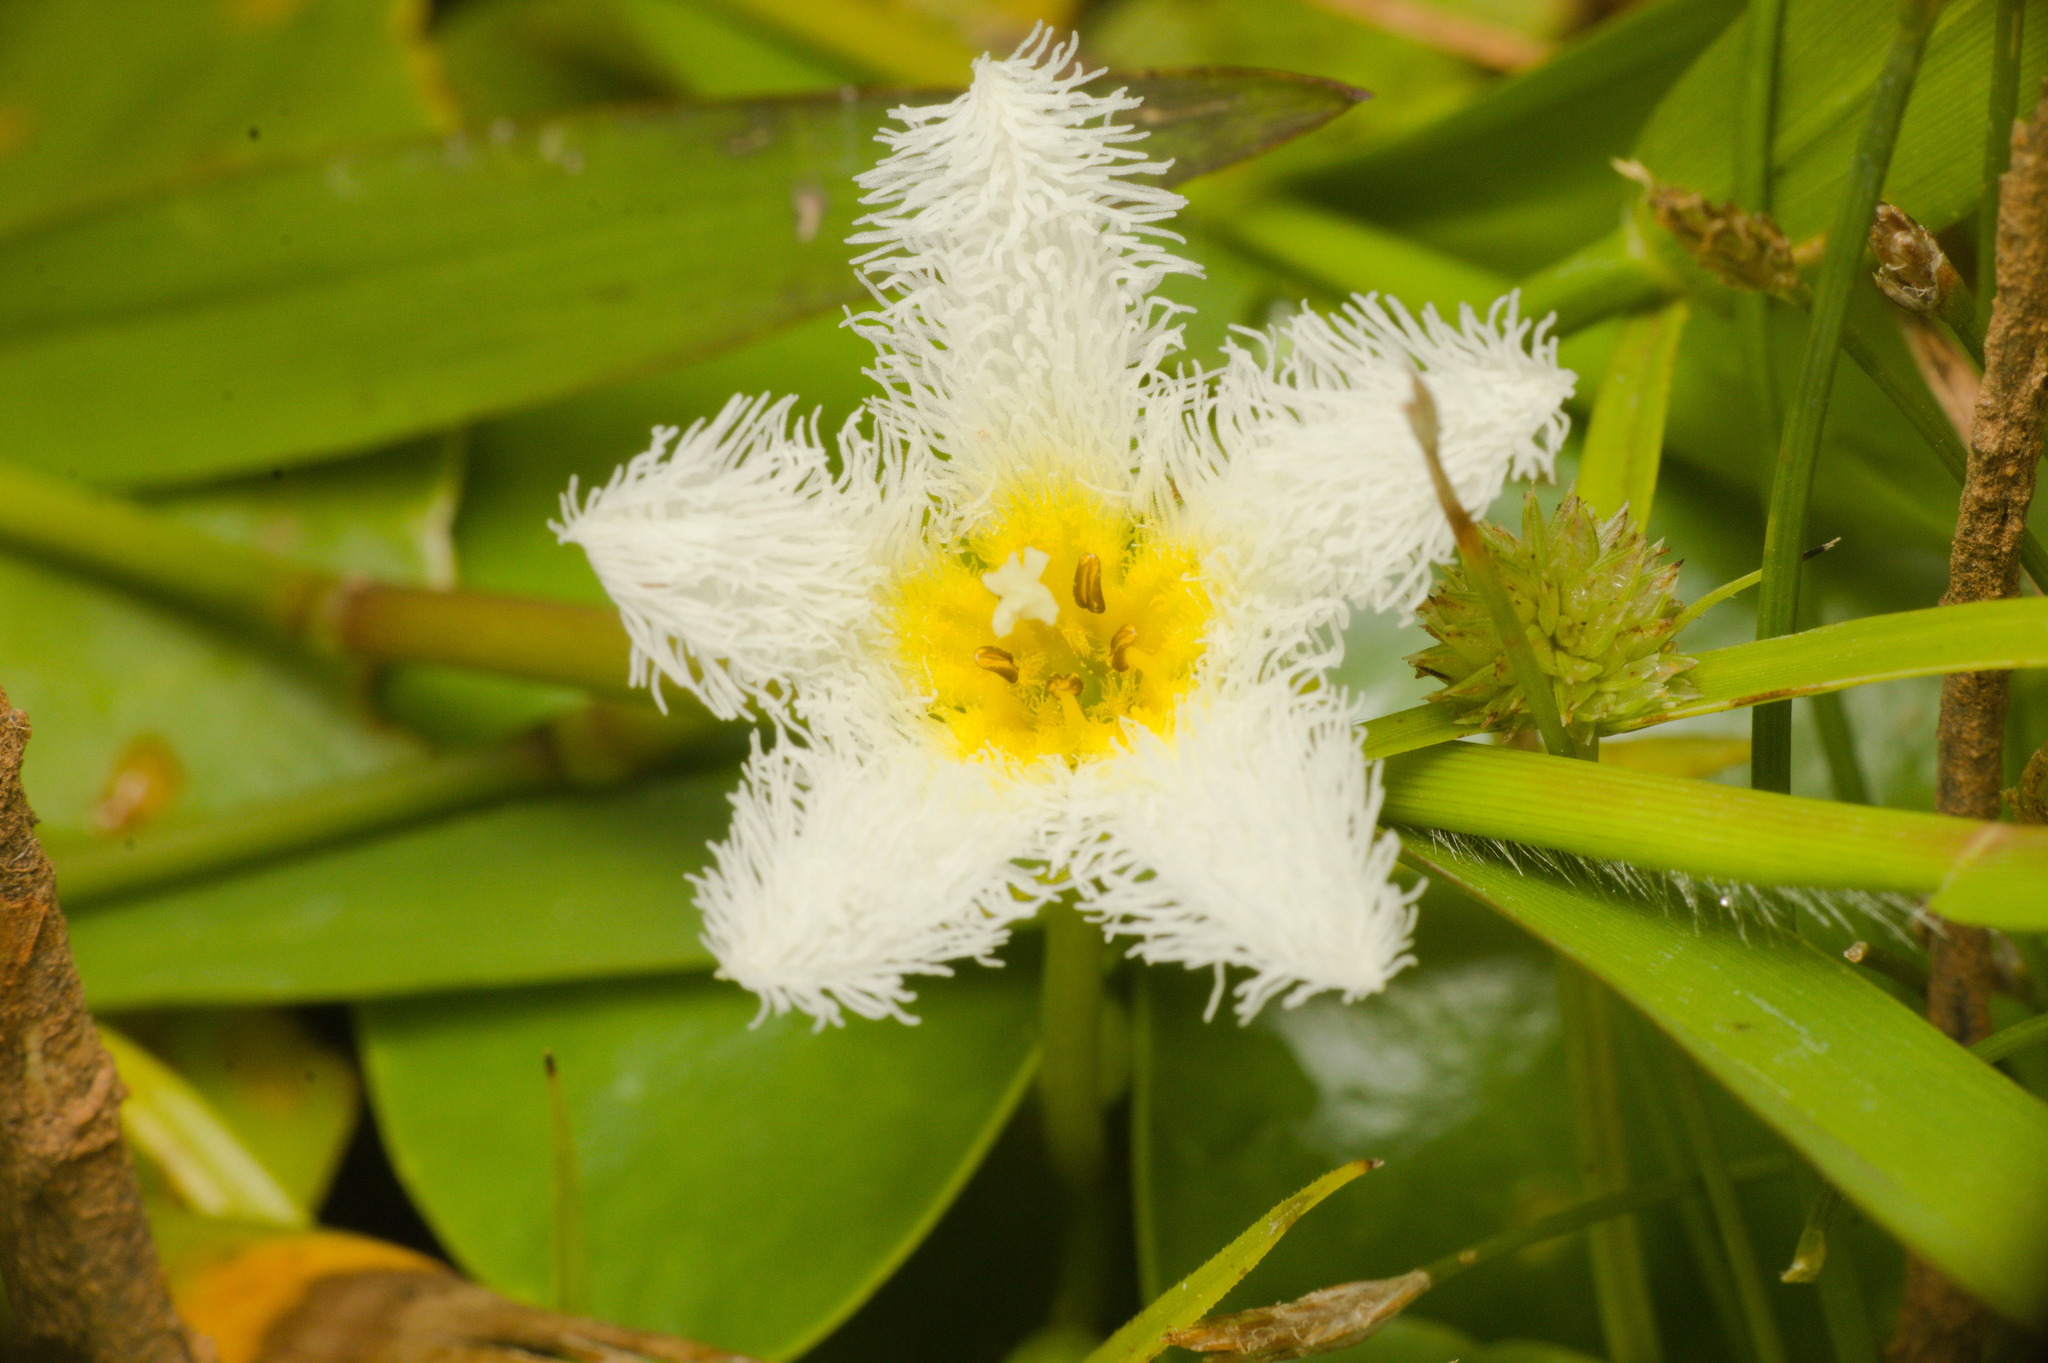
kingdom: Plantae
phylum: Tracheophyta
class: Magnoliopsida
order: Asterales
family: Menyanthaceae
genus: Nymphoides
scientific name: Nymphoides humboldtiana
